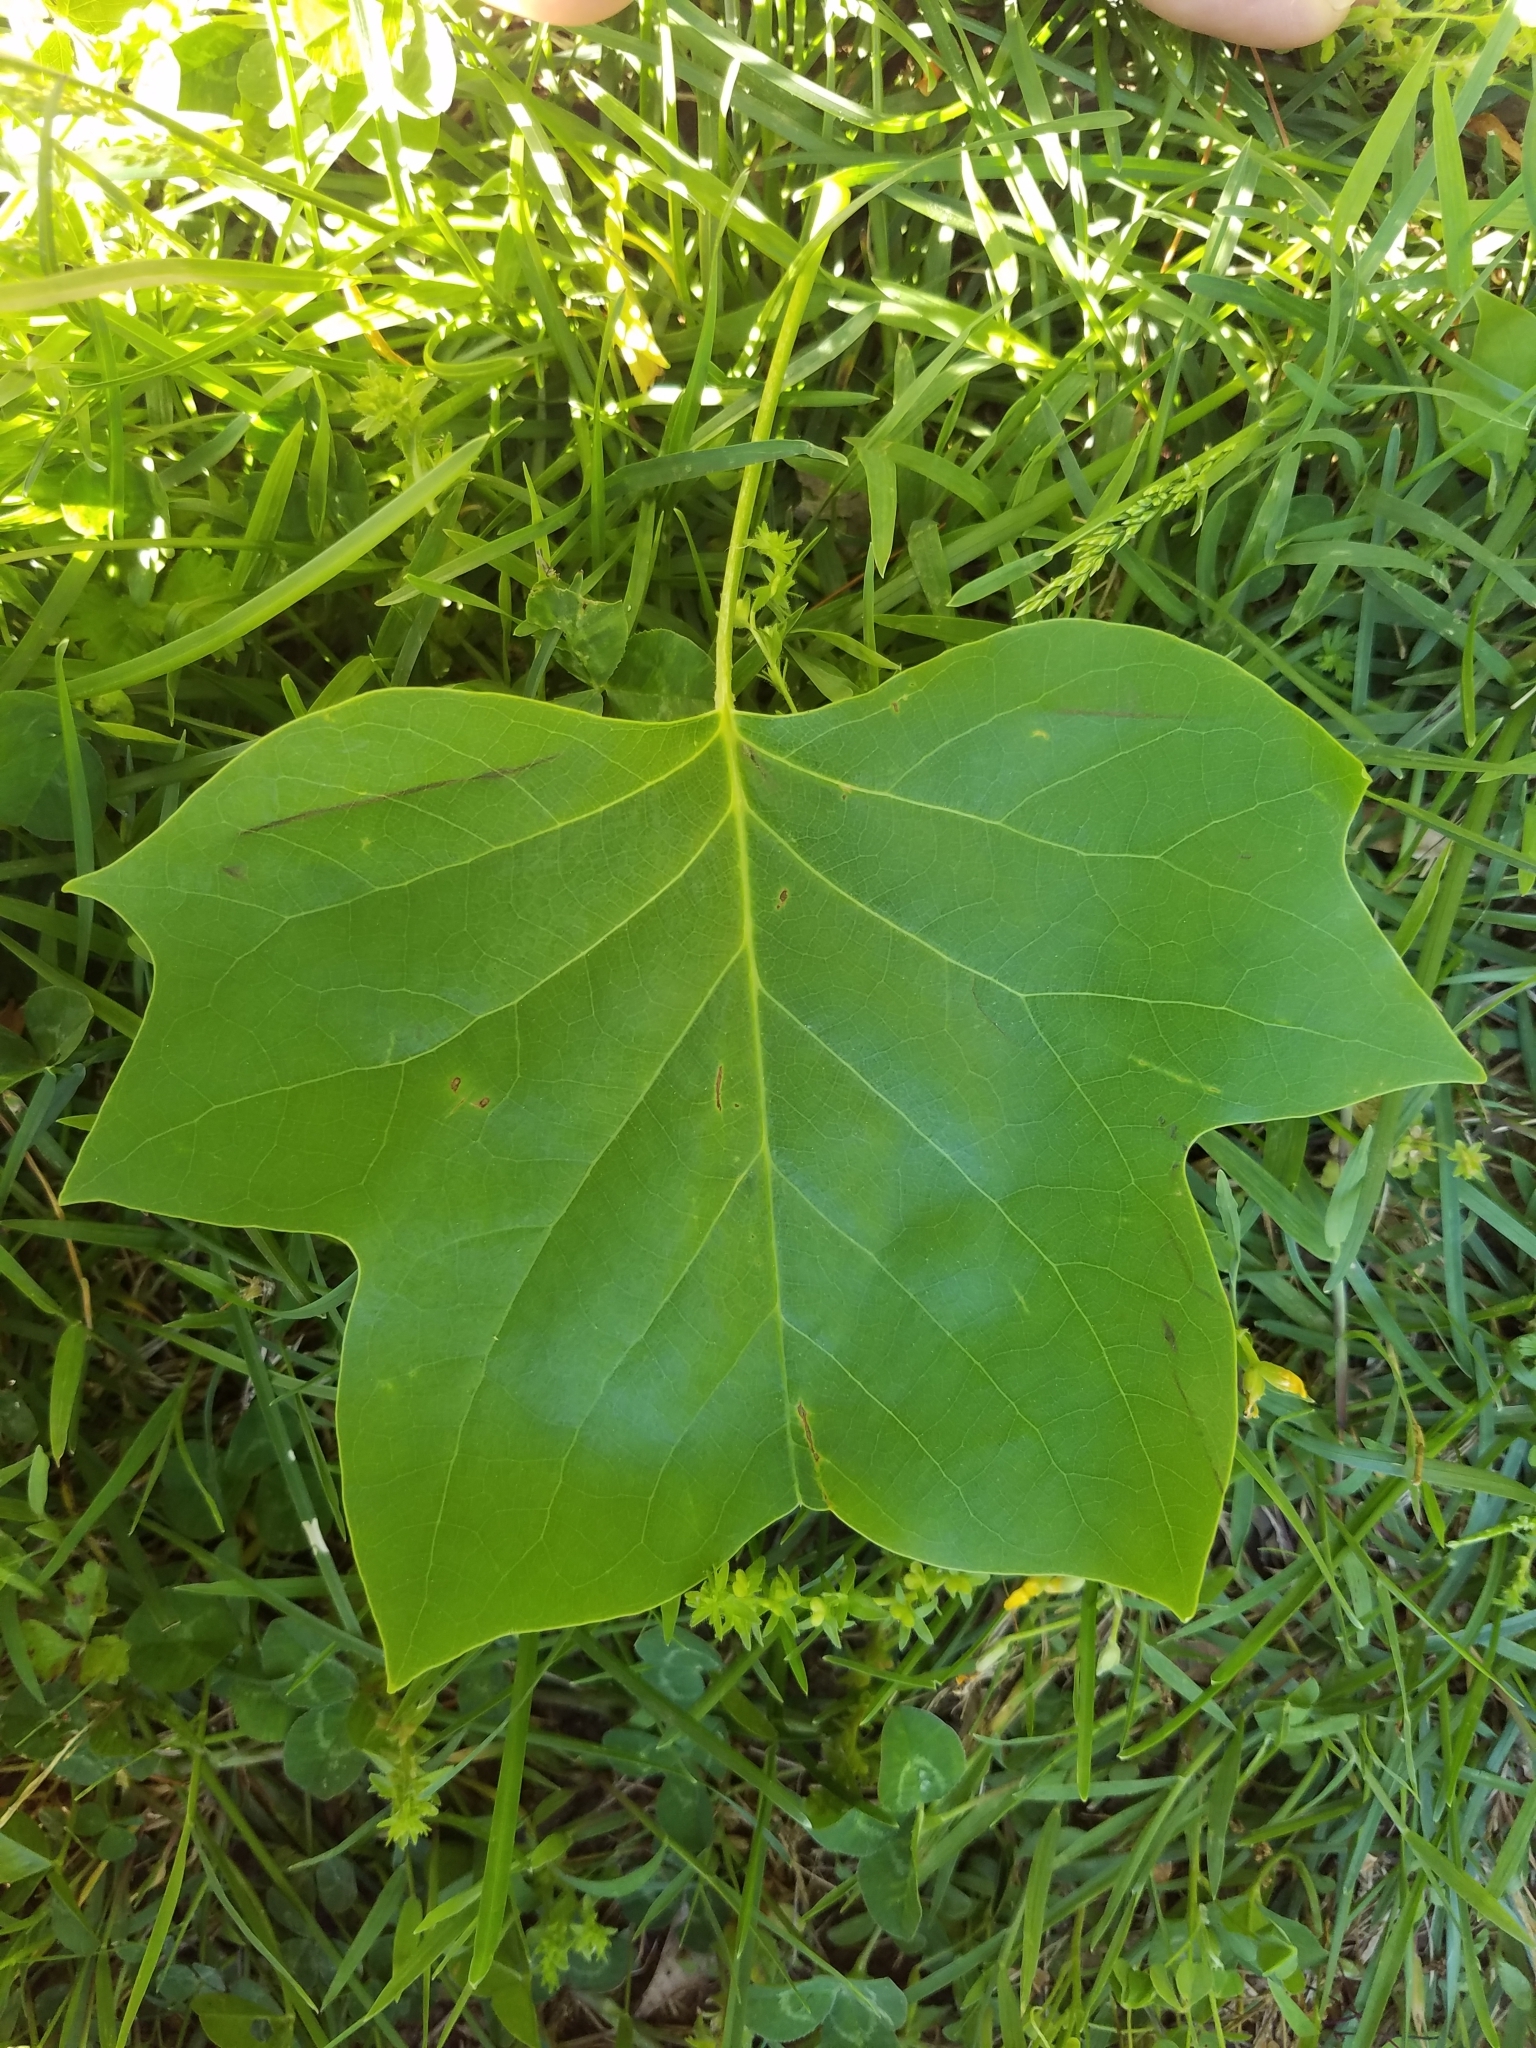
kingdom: Plantae
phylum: Tracheophyta
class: Magnoliopsida
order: Magnoliales
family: Magnoliaceae
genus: Liriodendron
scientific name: Liriodendron tulipifera
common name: Tulip tree
